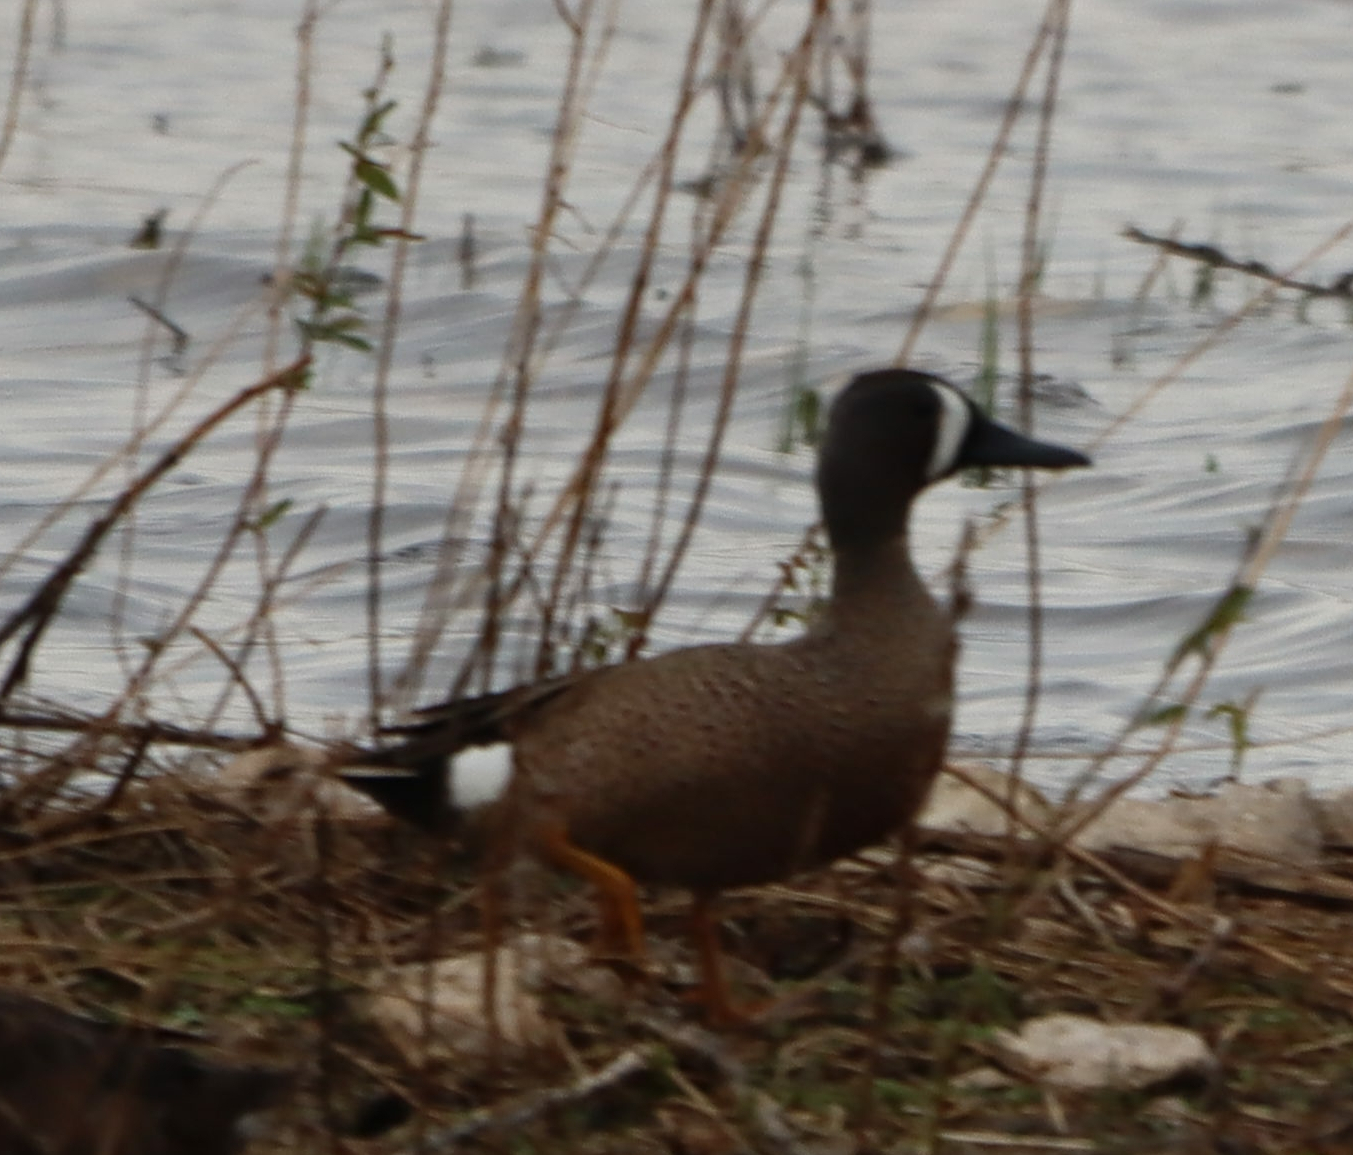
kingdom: Animalia
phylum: Chordata
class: Aves
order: Anseriformes
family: Anatidae
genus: Spatula
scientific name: Spatula discors
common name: Blue-winged teal
